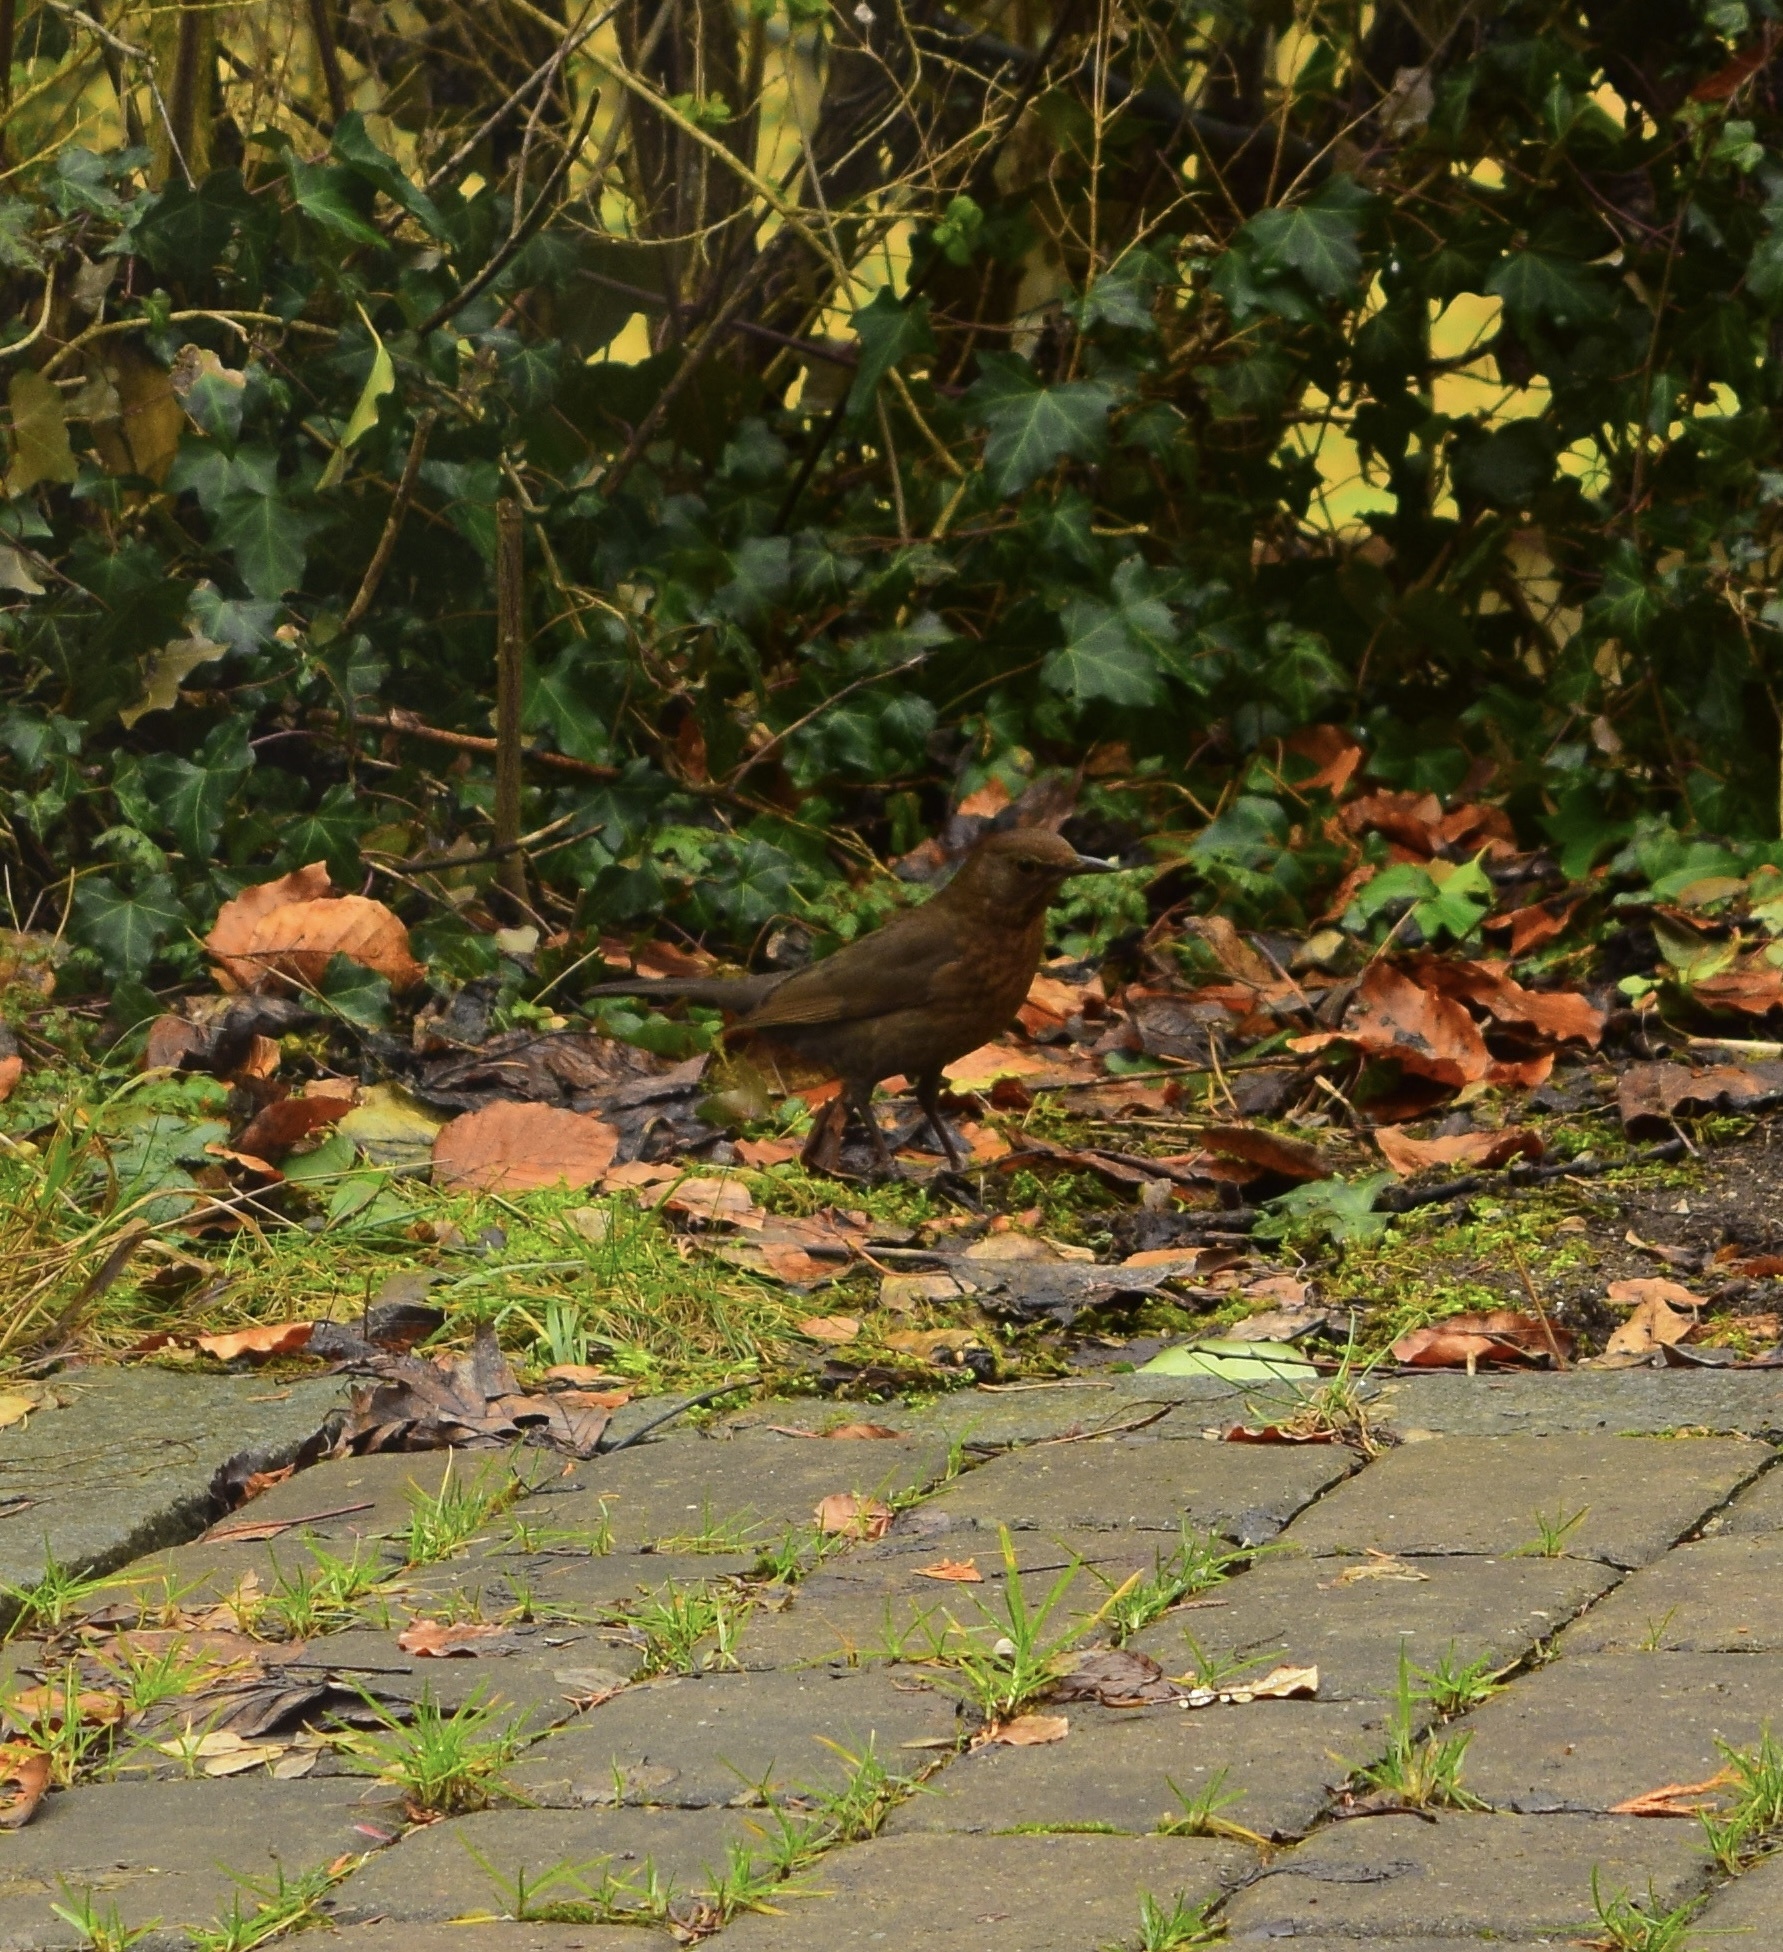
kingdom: Animalia
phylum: Chordata
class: Aves
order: Passeriformes
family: Turdidae
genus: Turdus
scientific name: Turdus merula
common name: Common blackbird
